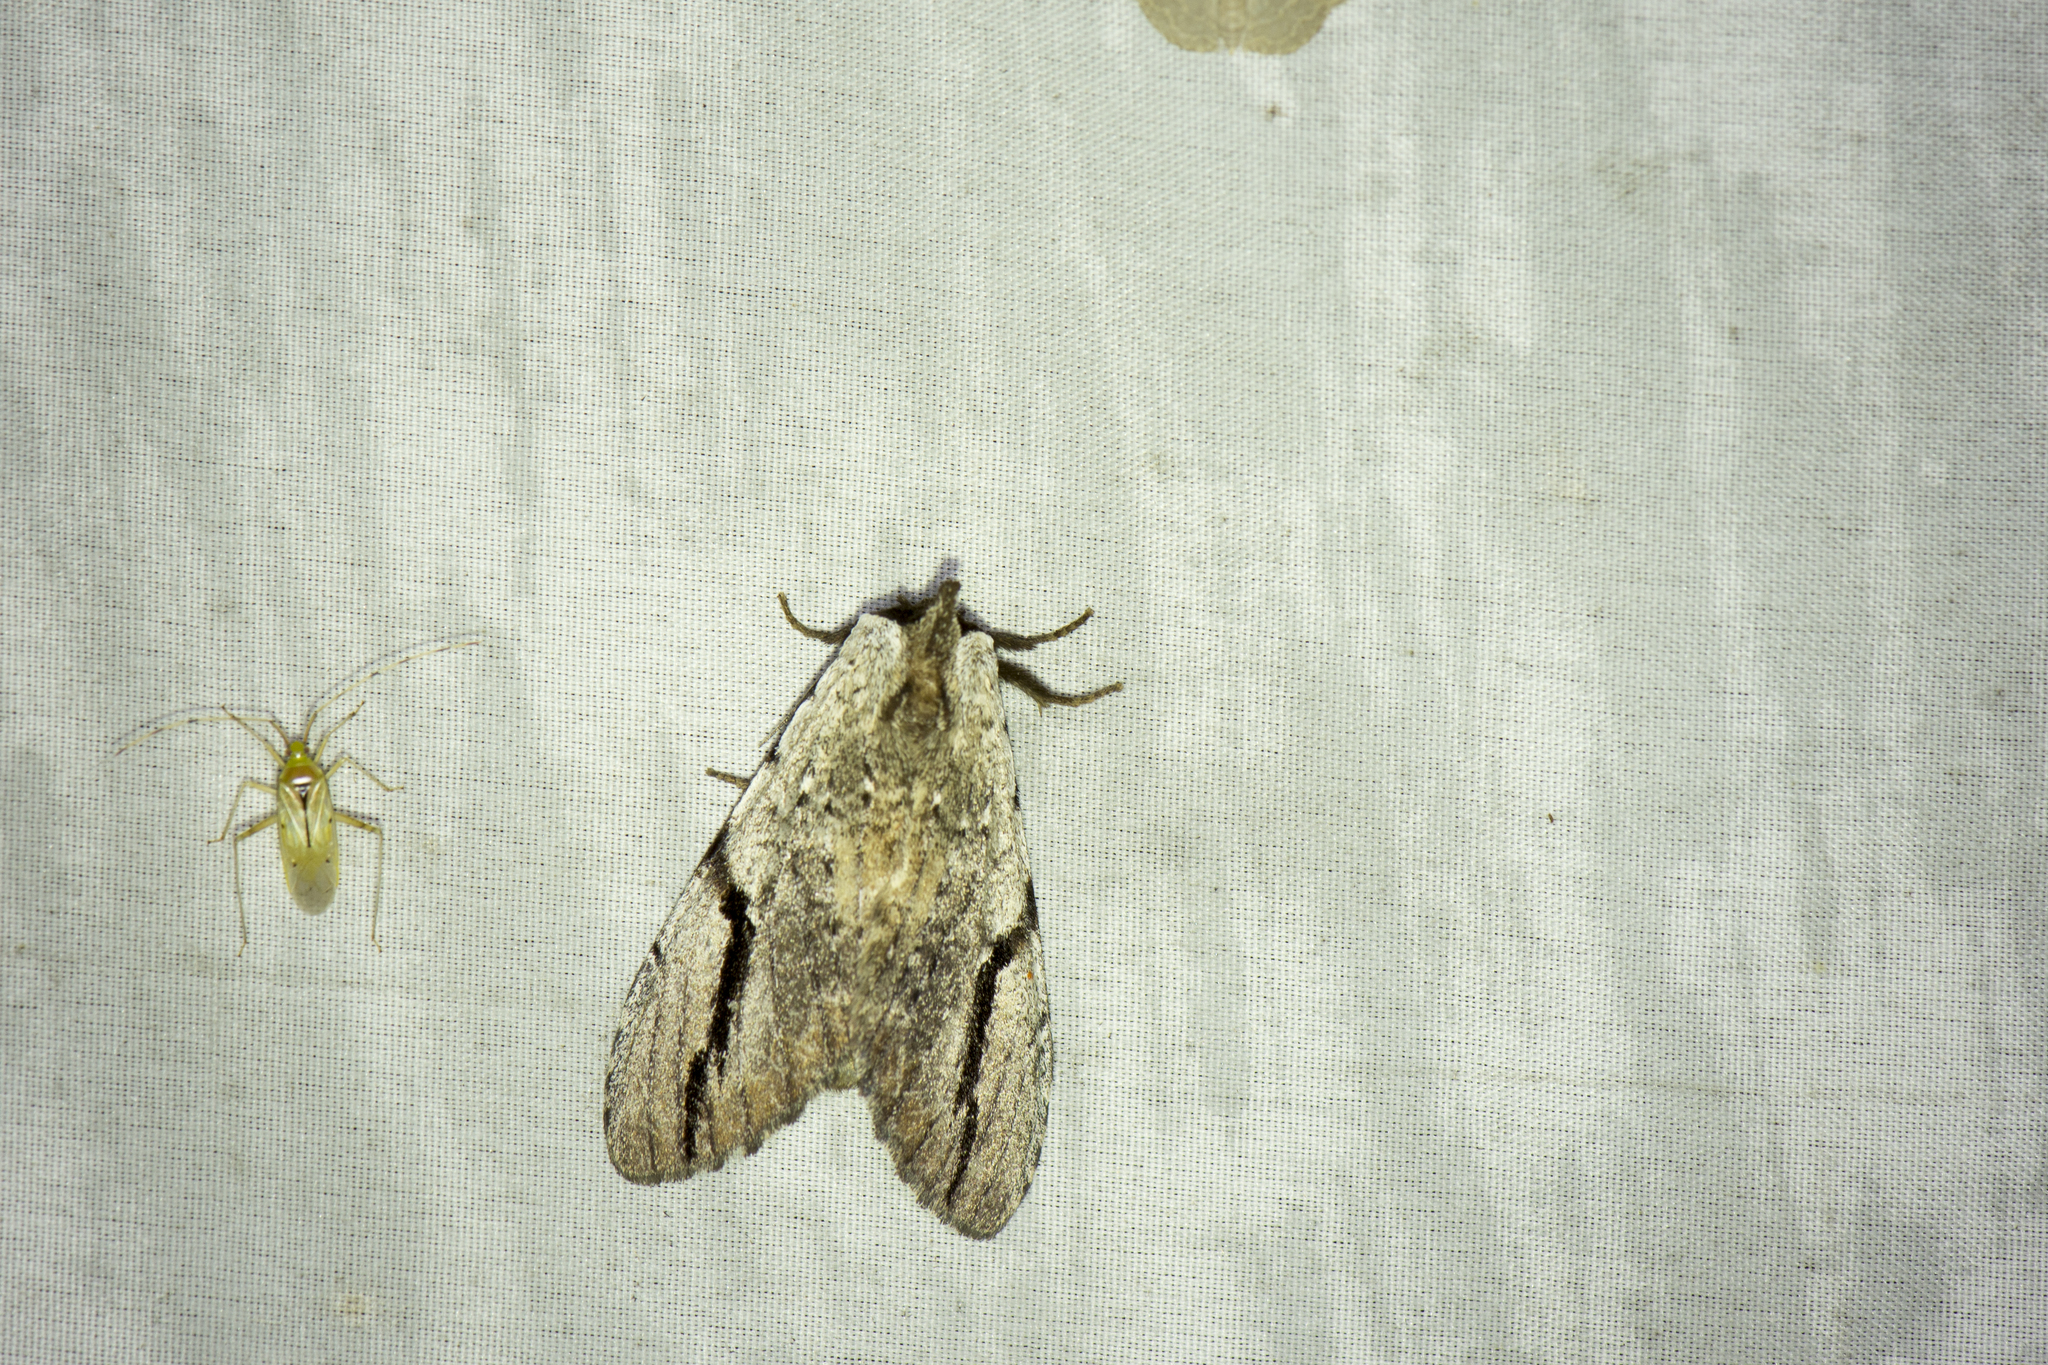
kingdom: Animalia
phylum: Arthropoda
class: Insecta
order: Lepidoptera
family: Notodontidae
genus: Lophocosma
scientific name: Lophocosma nigrilinea
